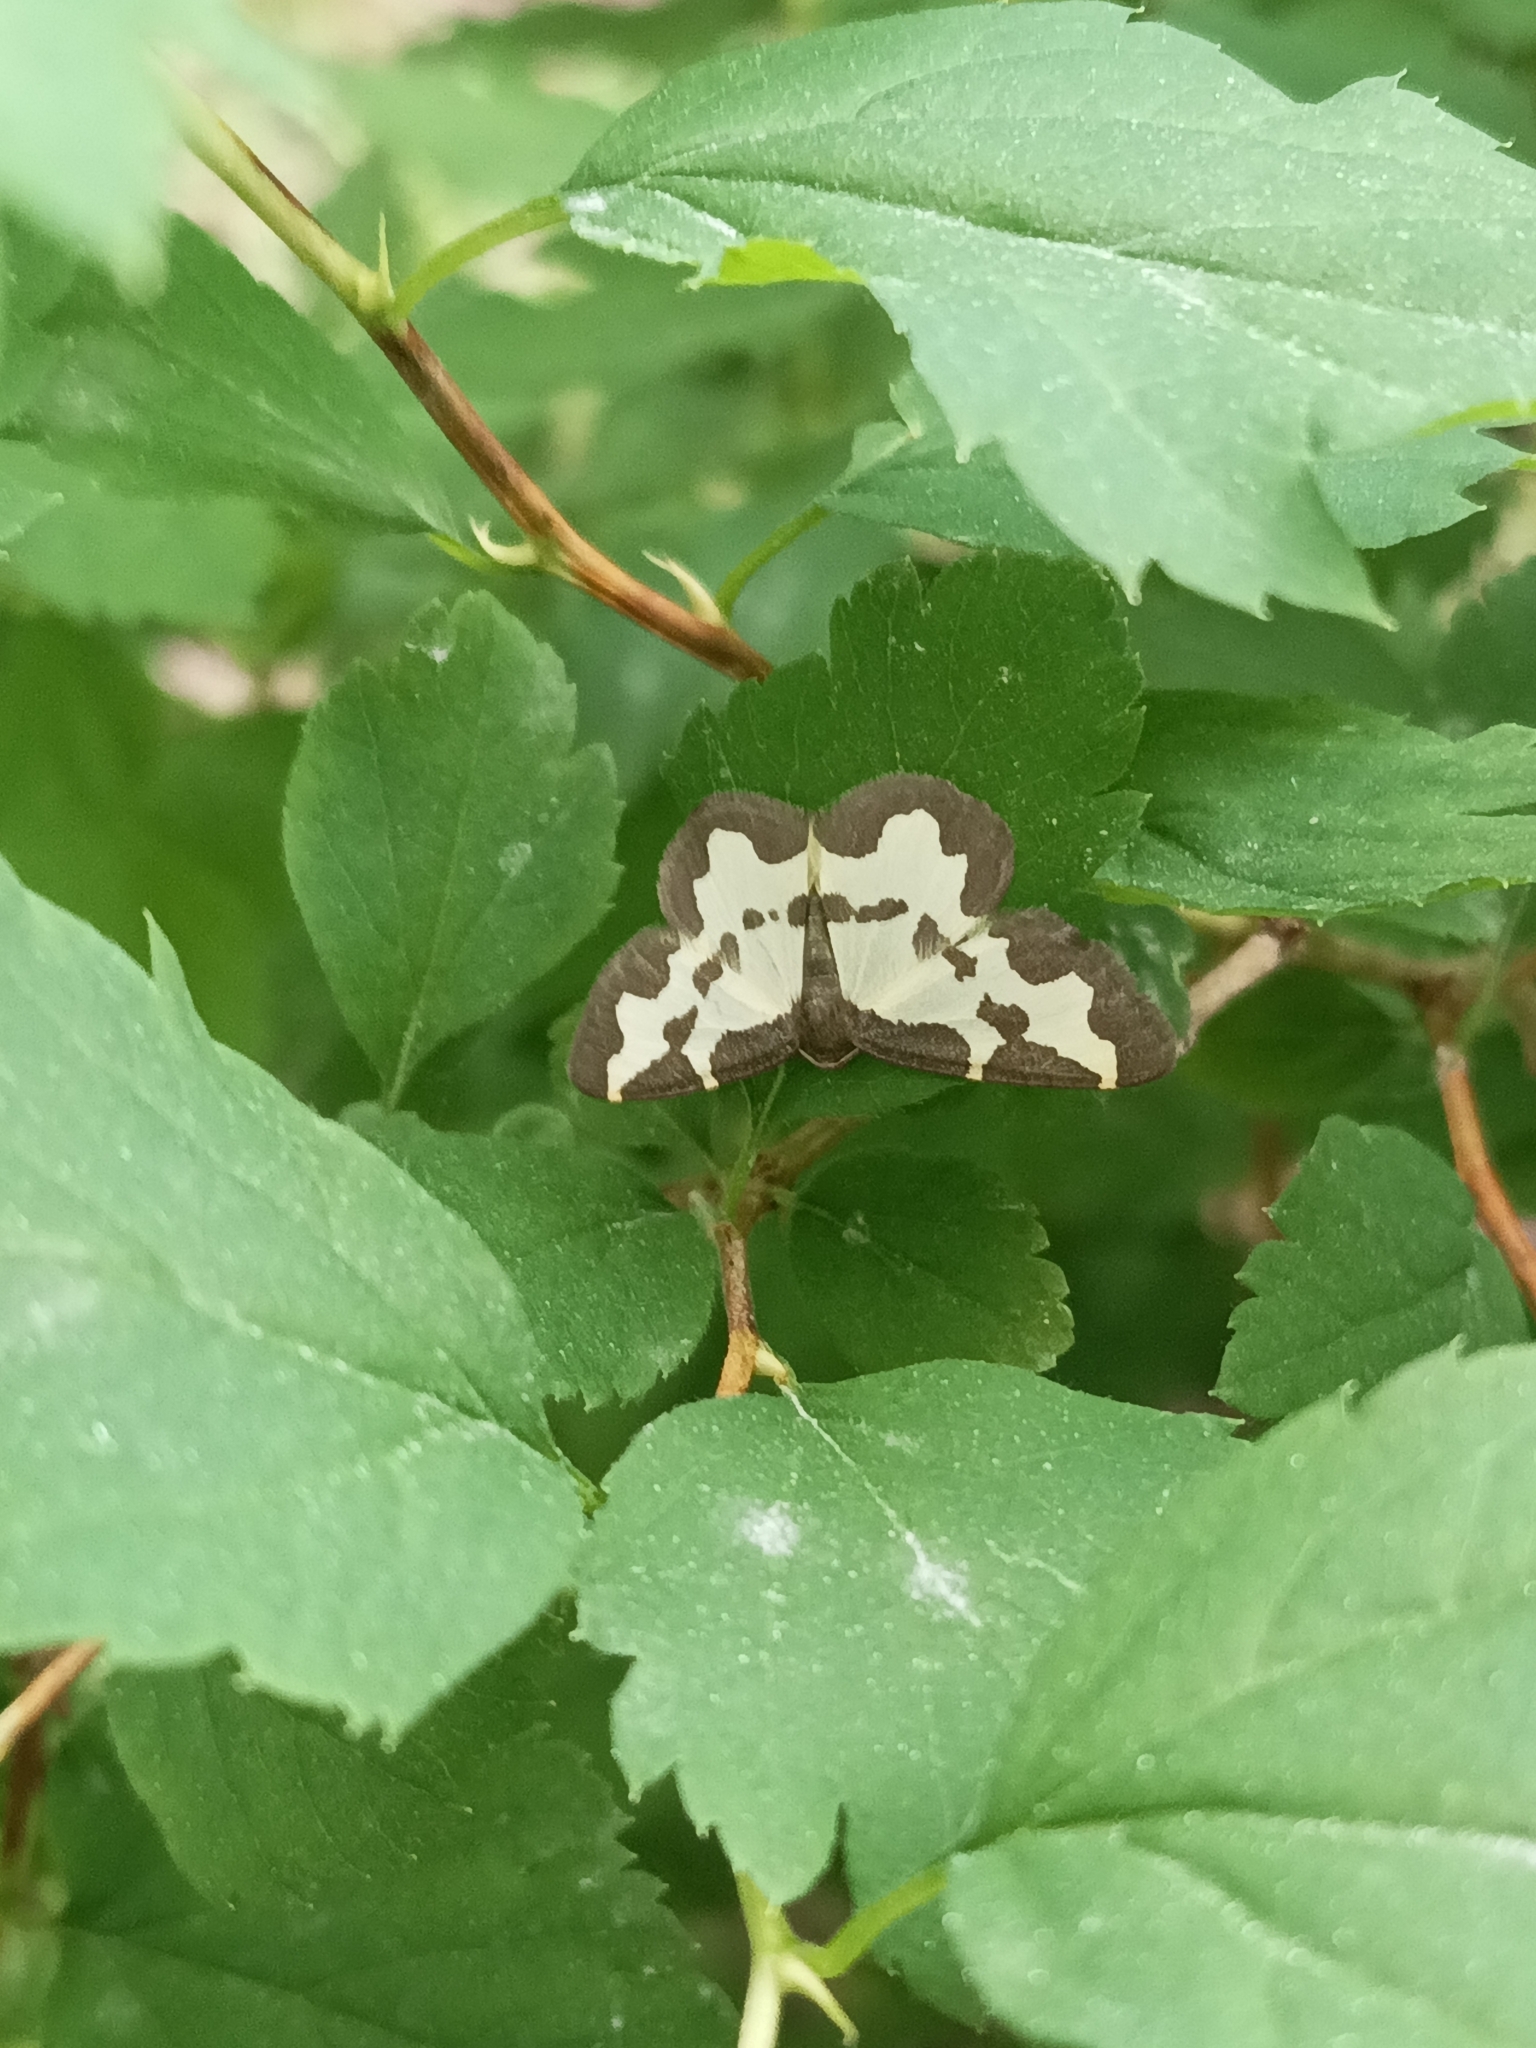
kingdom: Animalia
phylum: Arthropoda
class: Insecta
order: Lepidoptera
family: Geometridae
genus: Lomaspilis
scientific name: Lomaspilis marginata
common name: Clouded border
